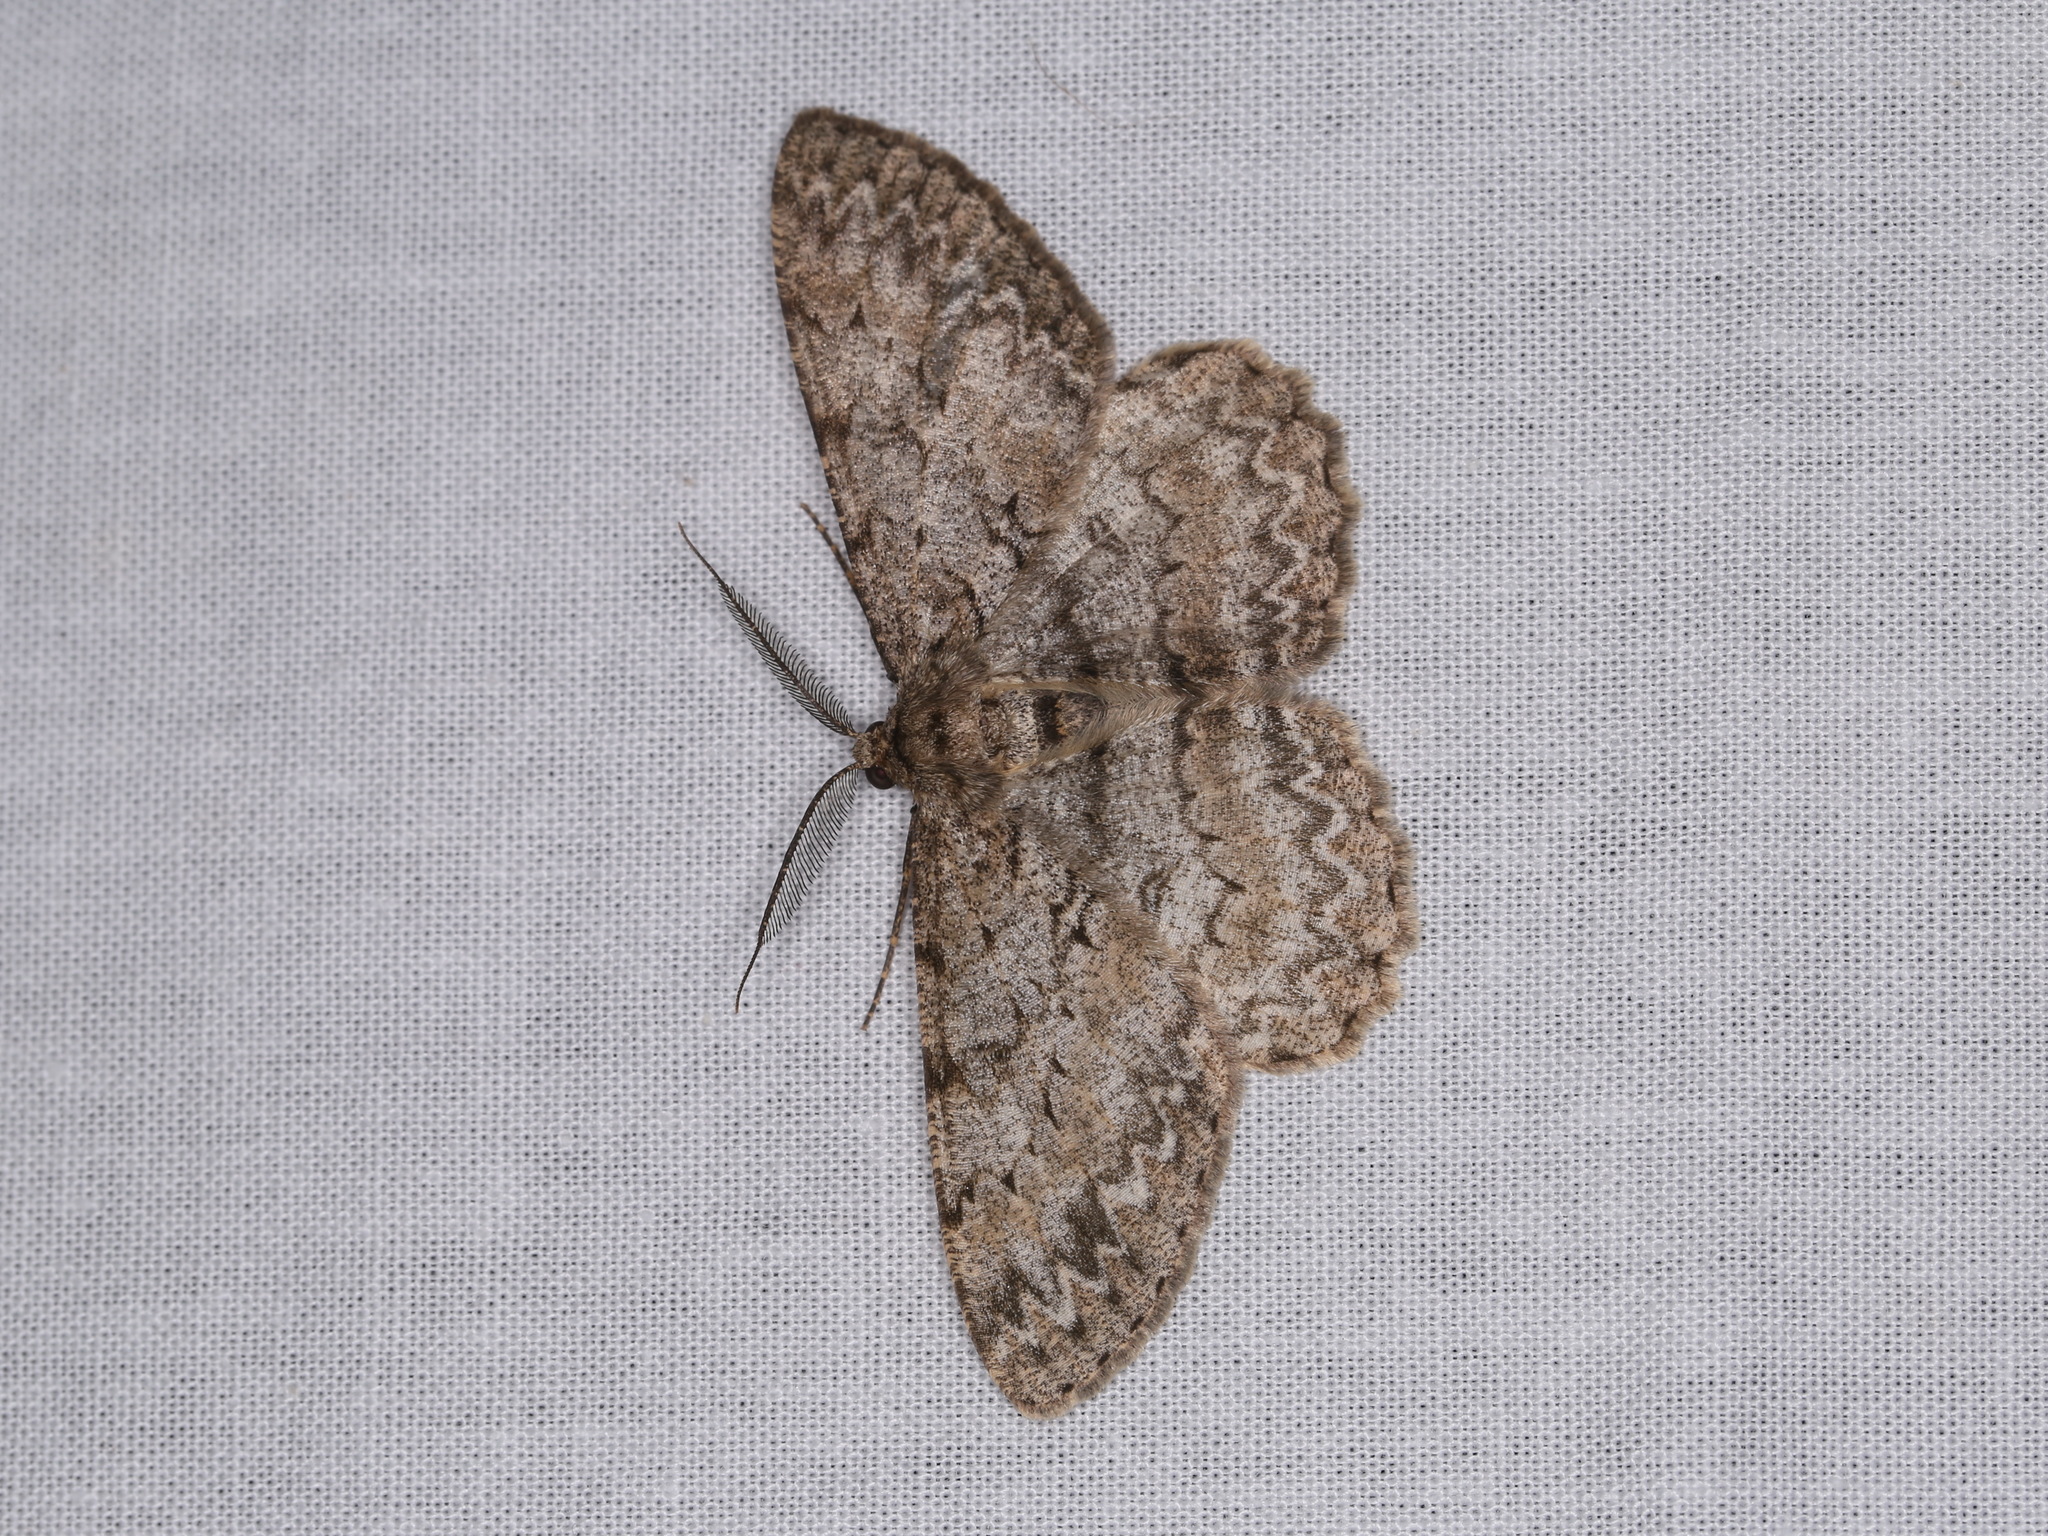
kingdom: Animalia
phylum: Arthropoda
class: Insecta
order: Lepidoptera
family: Geometridae
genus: Hypomecis
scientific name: Hypomecis punctinalis
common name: Pale oak beauty
